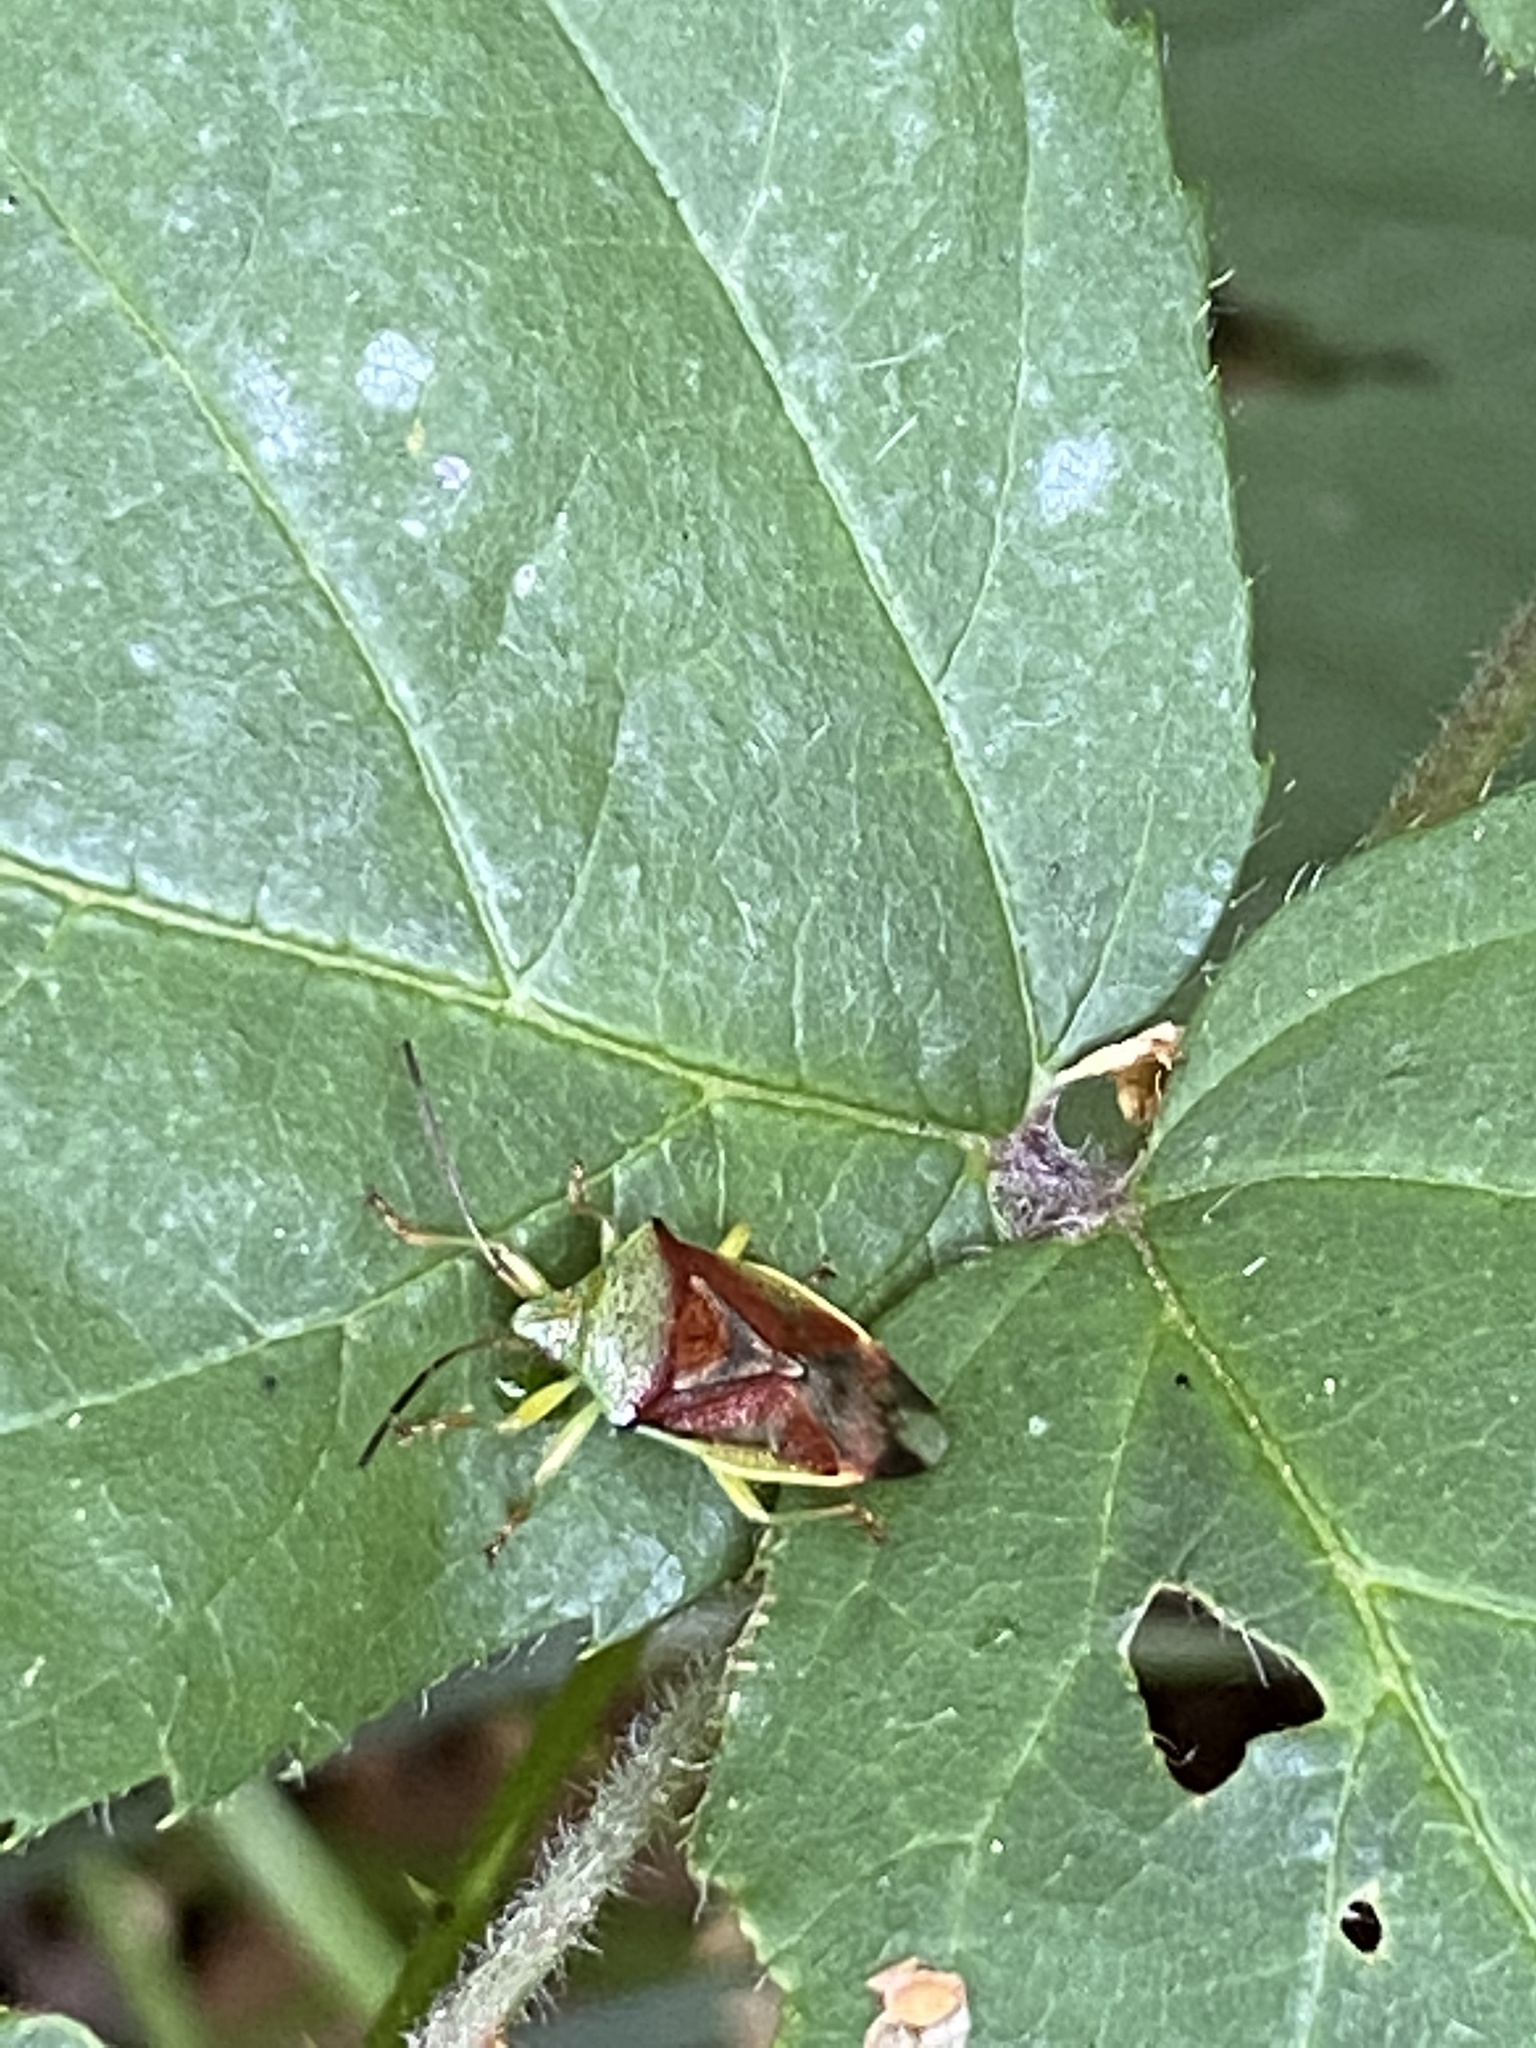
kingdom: Animalia
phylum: Arthropoda
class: Insecta
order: Hemiptera
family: Acanthosomatidae
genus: Elasmostethus
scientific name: Elasmostethus
